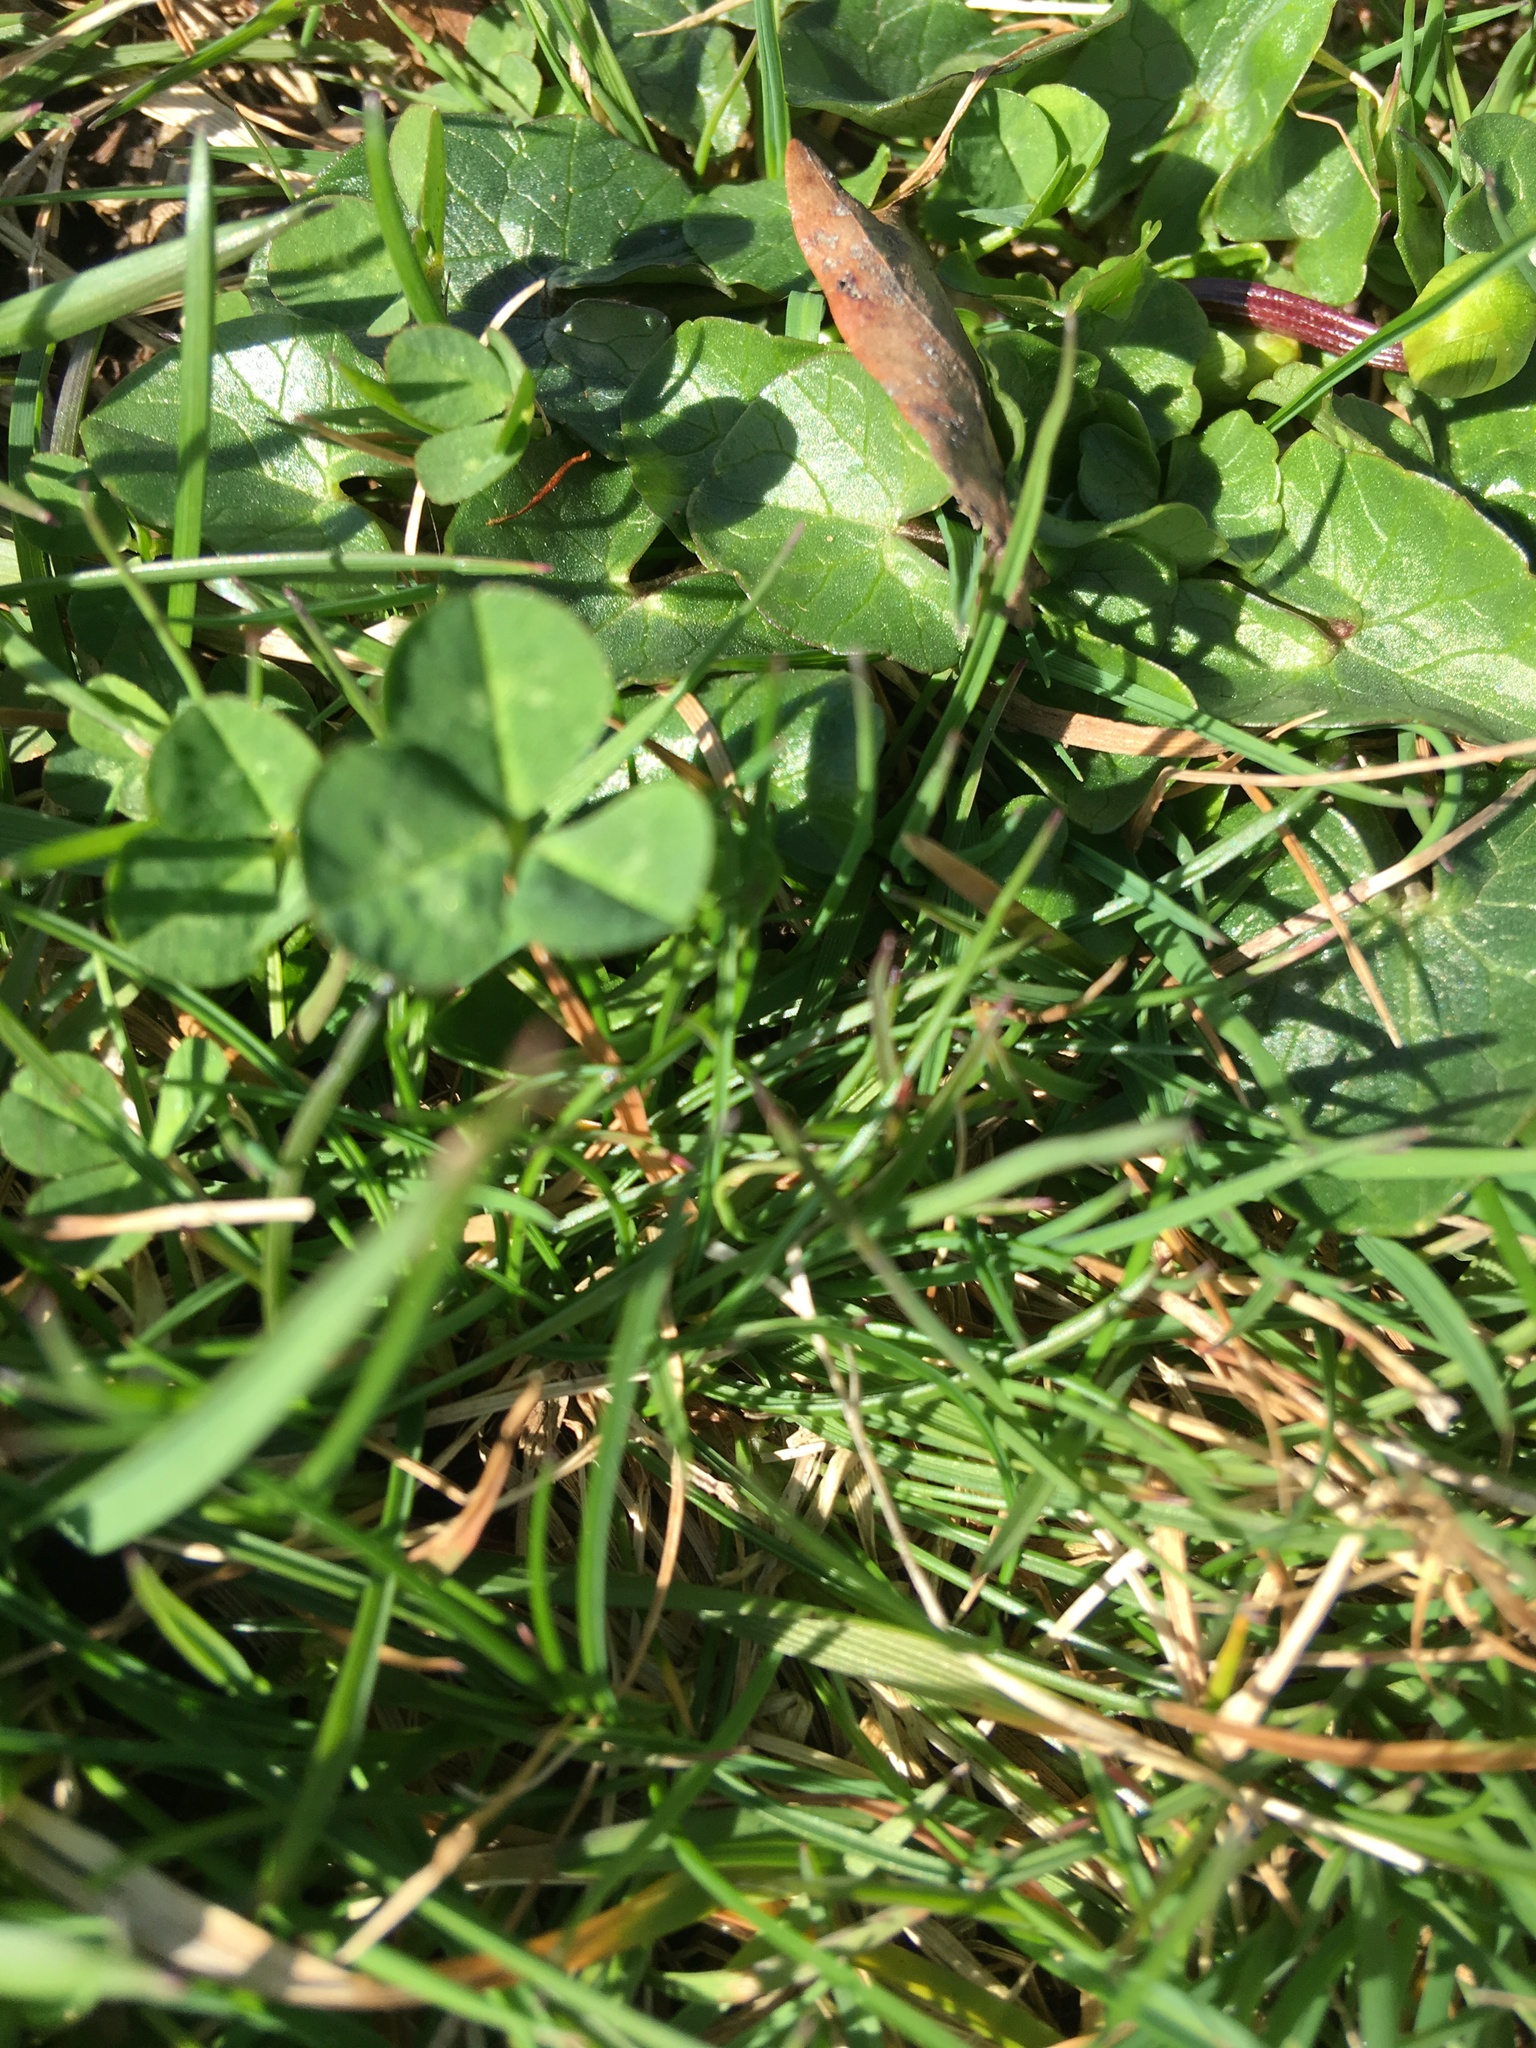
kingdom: Plantae
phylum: Tracheophyta
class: Magnoliopsida
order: Ranunculales
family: Ranunculaceae
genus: Ficaria
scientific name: Ficaria verna
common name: Lesser celandine
